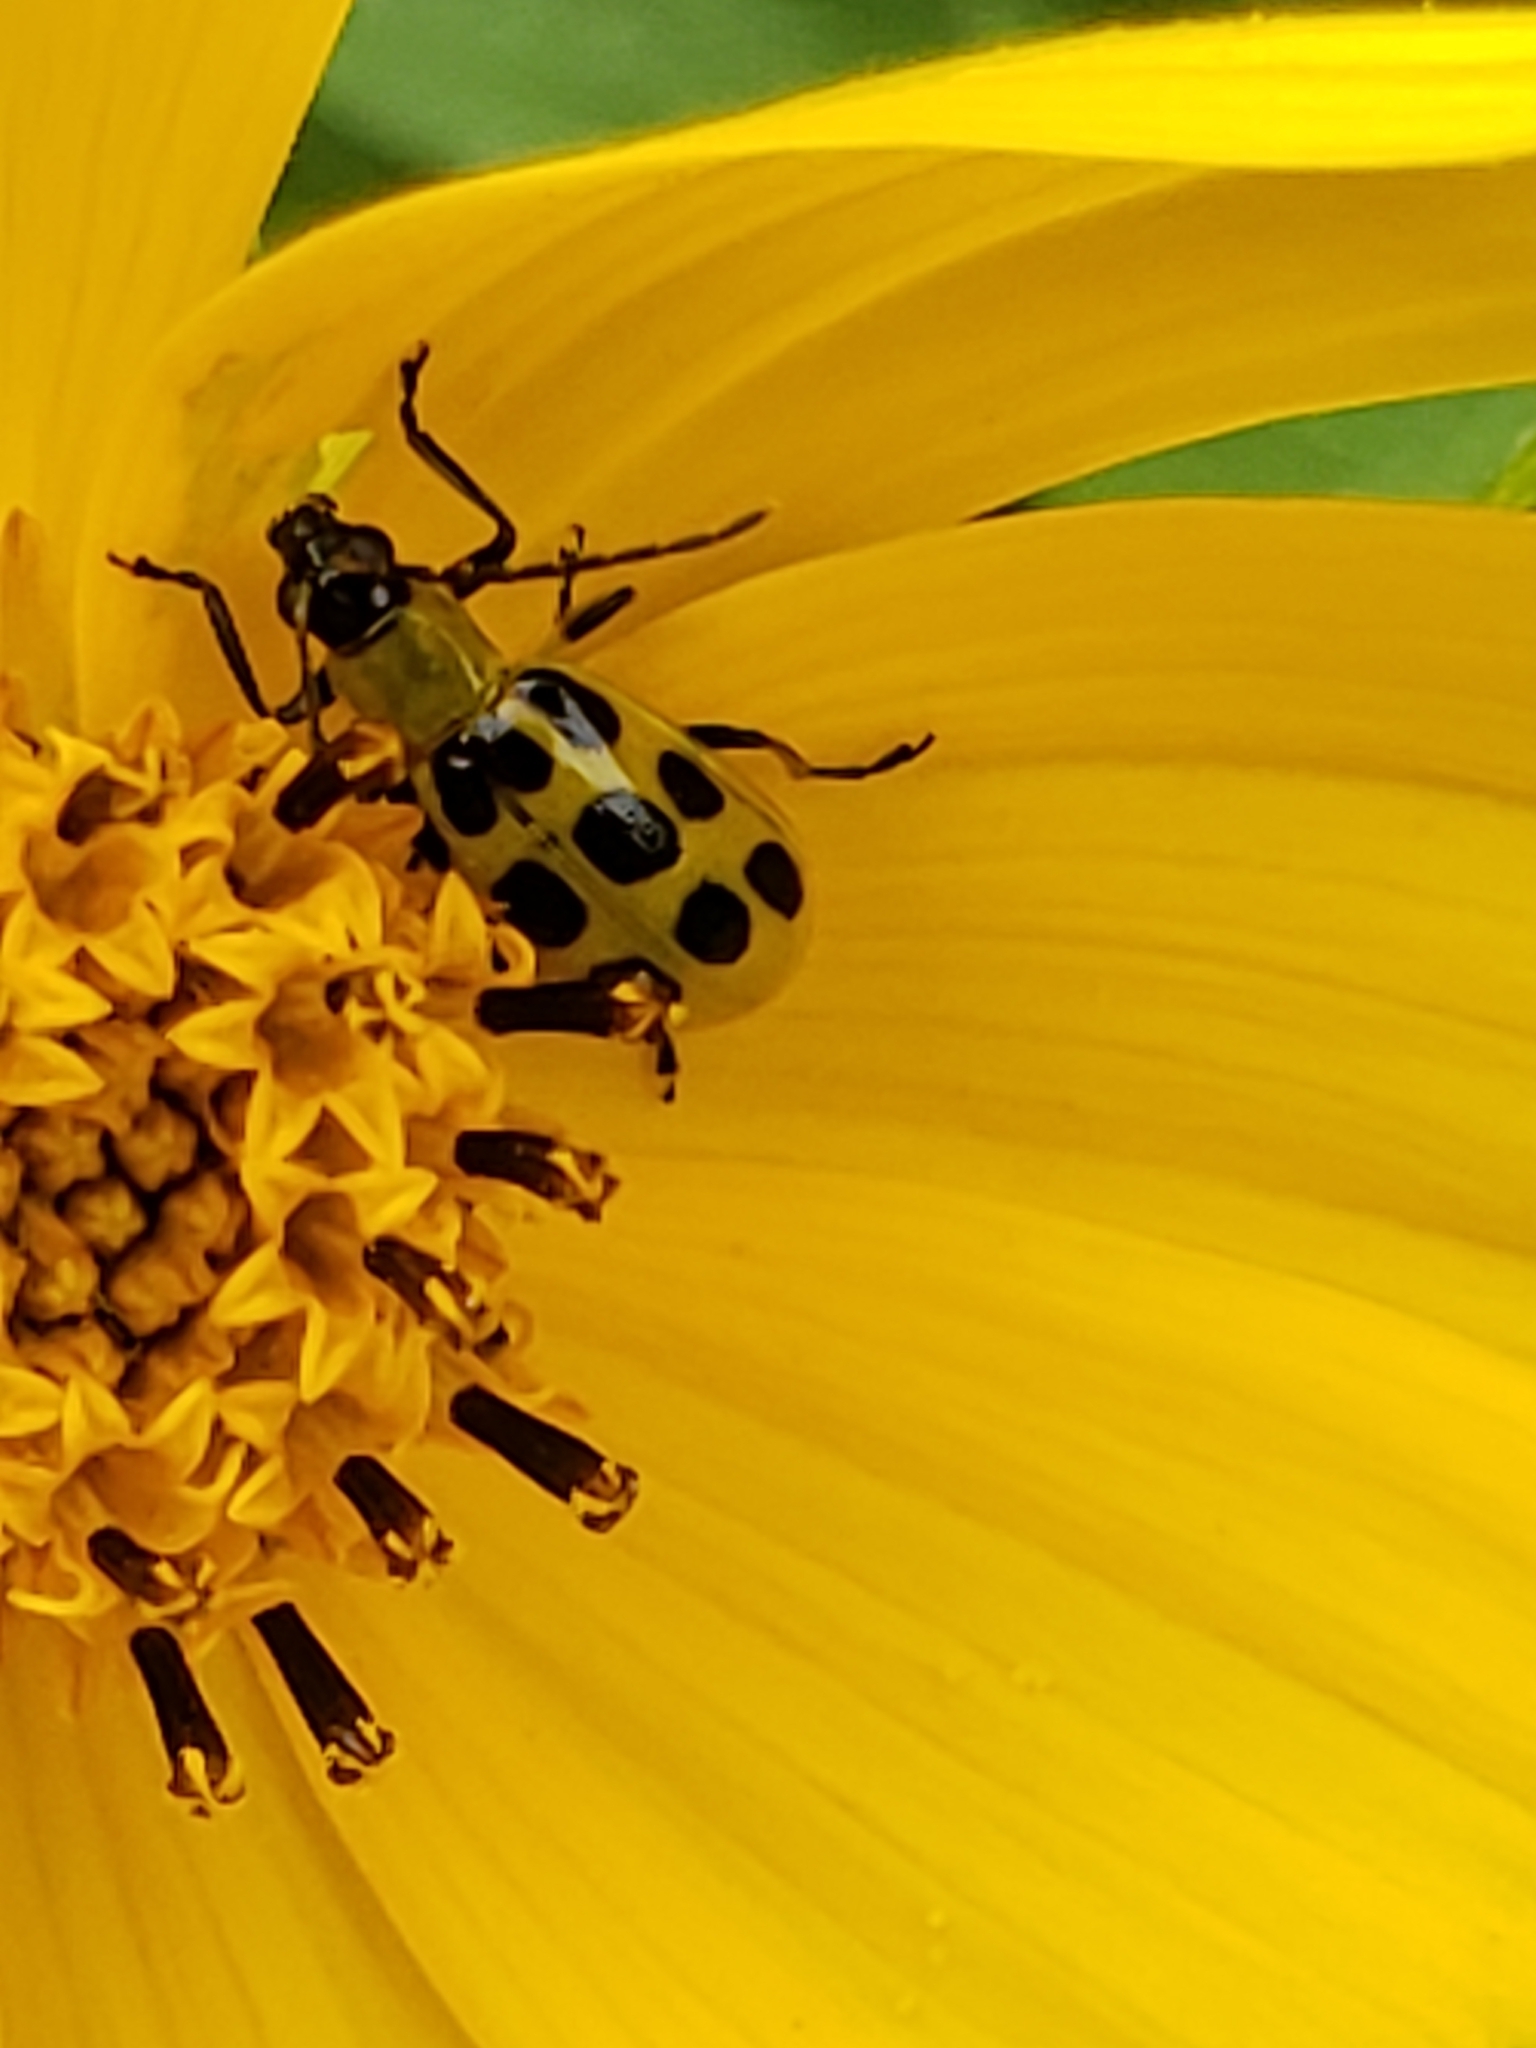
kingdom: Animalia
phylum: Arthropoda
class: Insecta
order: Coleoptera
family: Chrysomelidae
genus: Diabrotica
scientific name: Diabrotica undecimpunctata
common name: Spotted cucumber beetle
